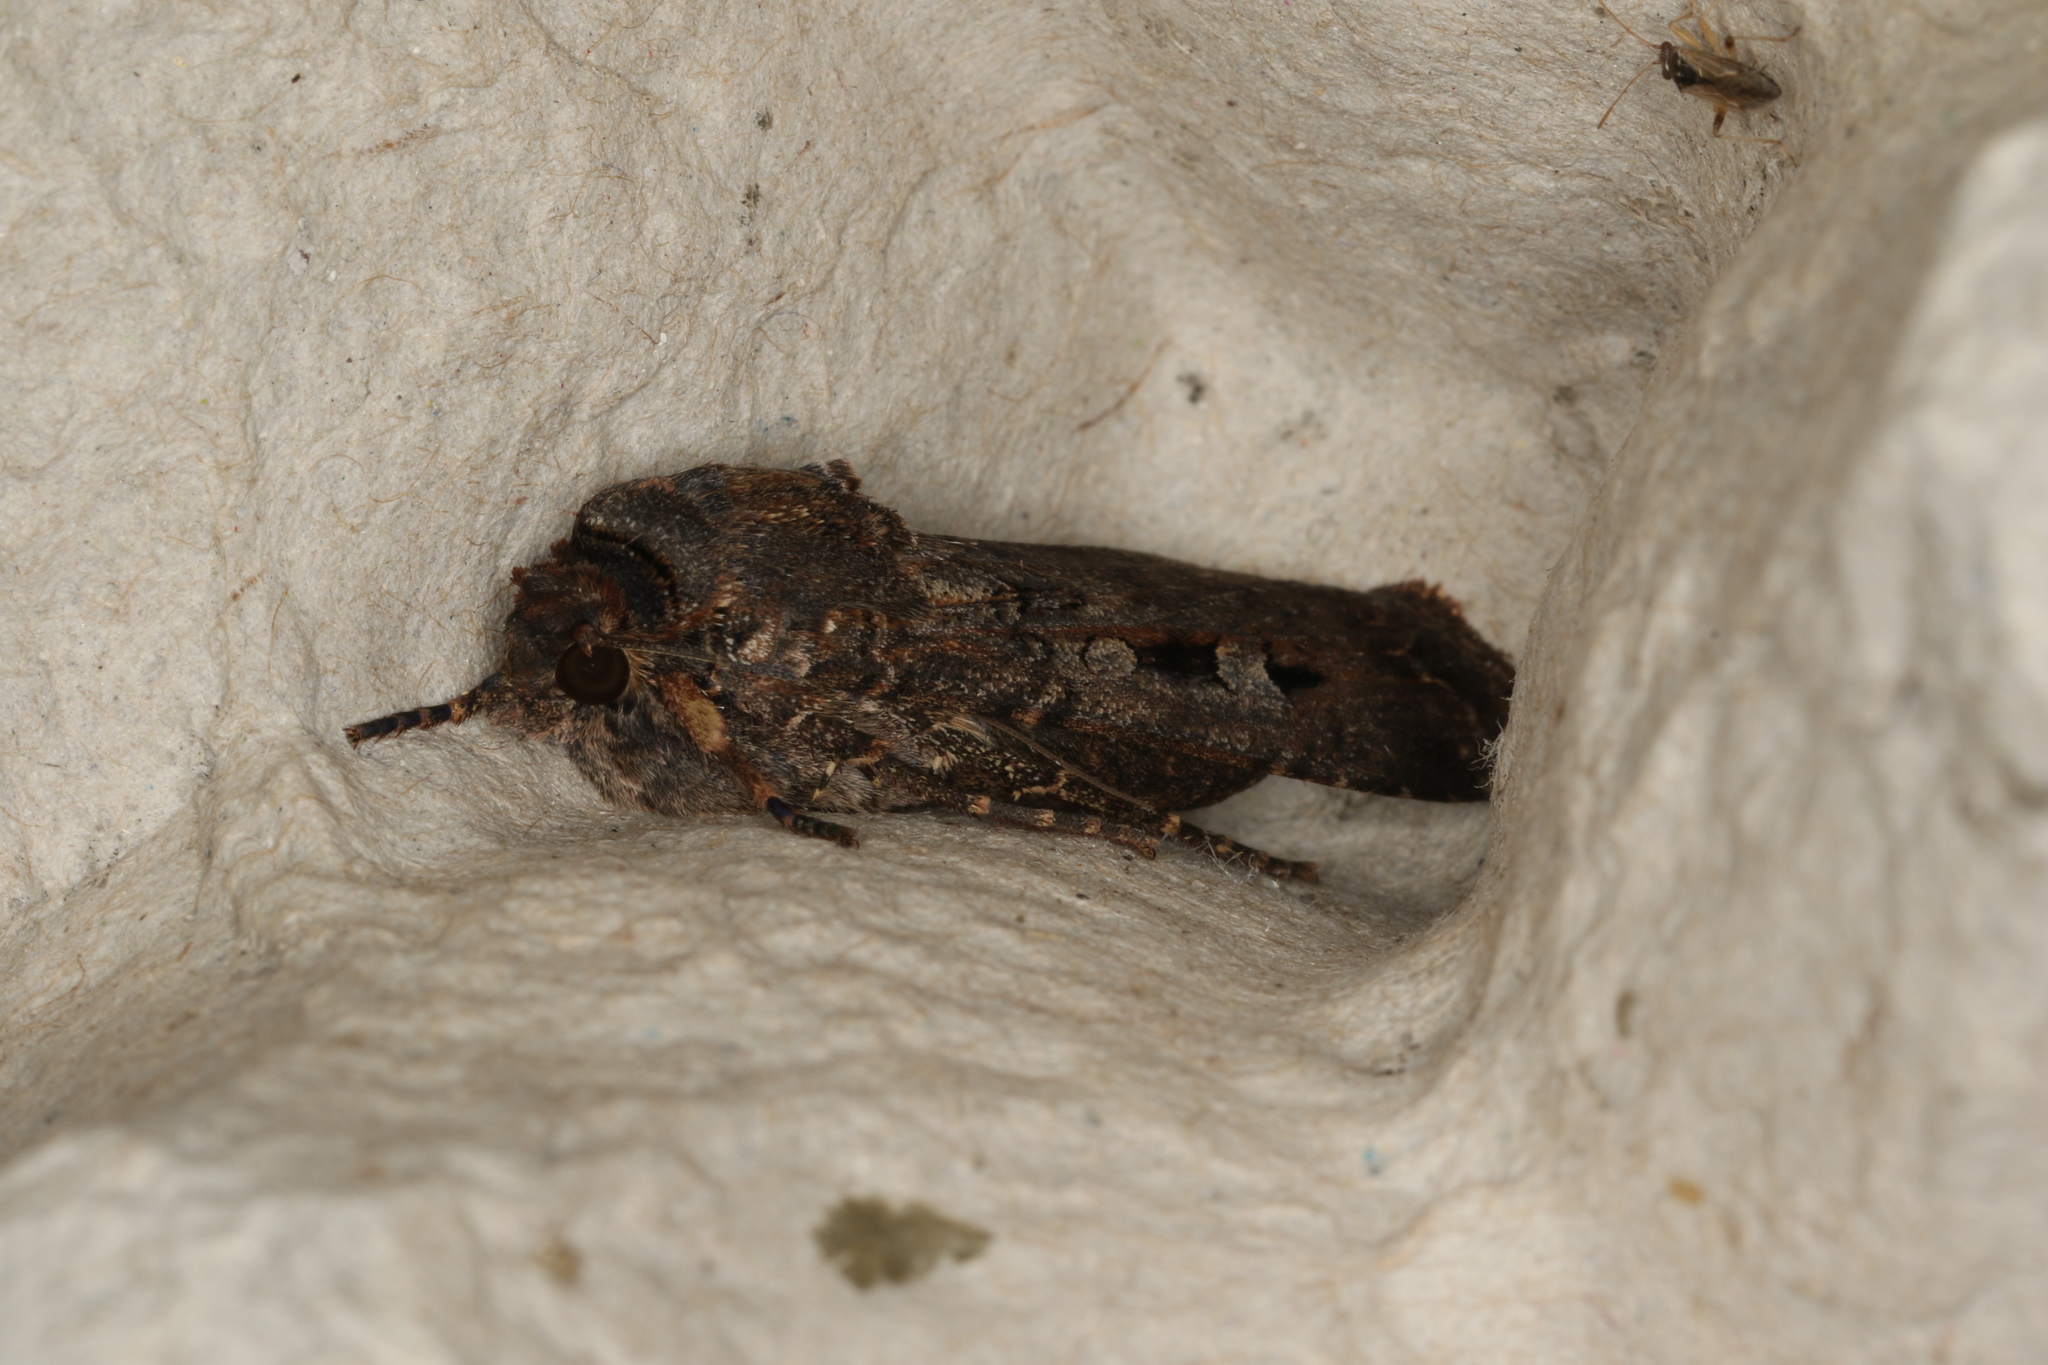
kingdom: Animalia
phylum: Arthropoda
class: Insecta
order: Lepidoptera
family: Noctuidae
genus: Agrotis
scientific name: Agrotis infusa
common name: Bogong moth
